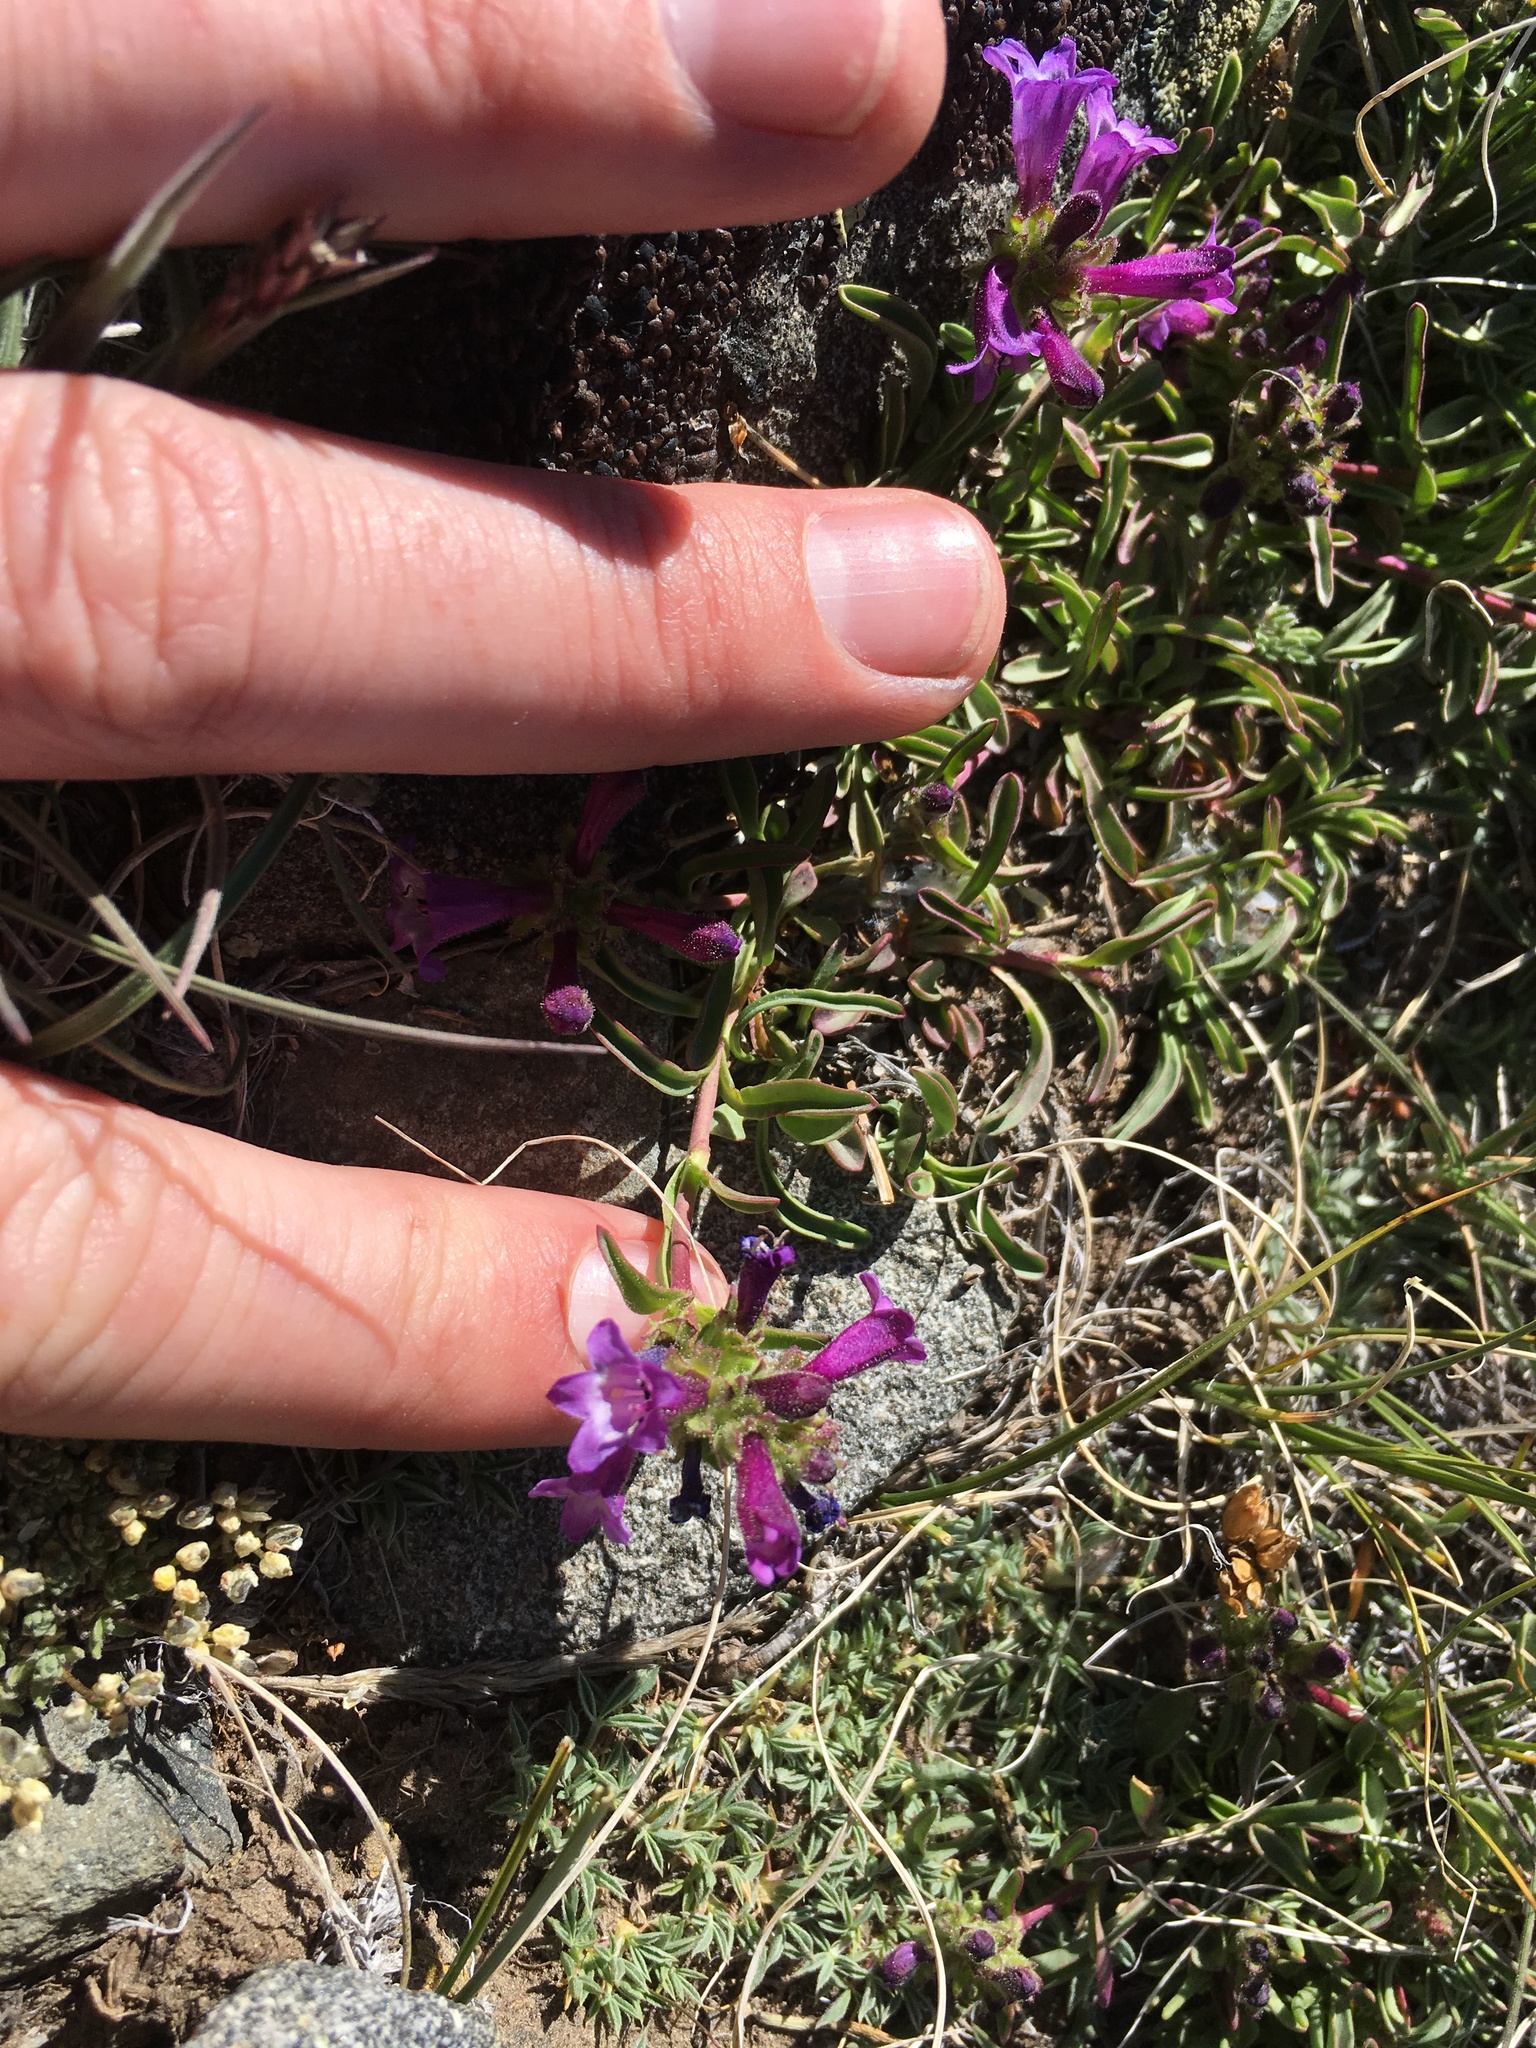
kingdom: Plantae
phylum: Tracheophyta
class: Magnoliopsida
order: Lamiales
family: Plantaginaceae
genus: Penstemon
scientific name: Penstemon heterodoxus
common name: Sierran penstemon
